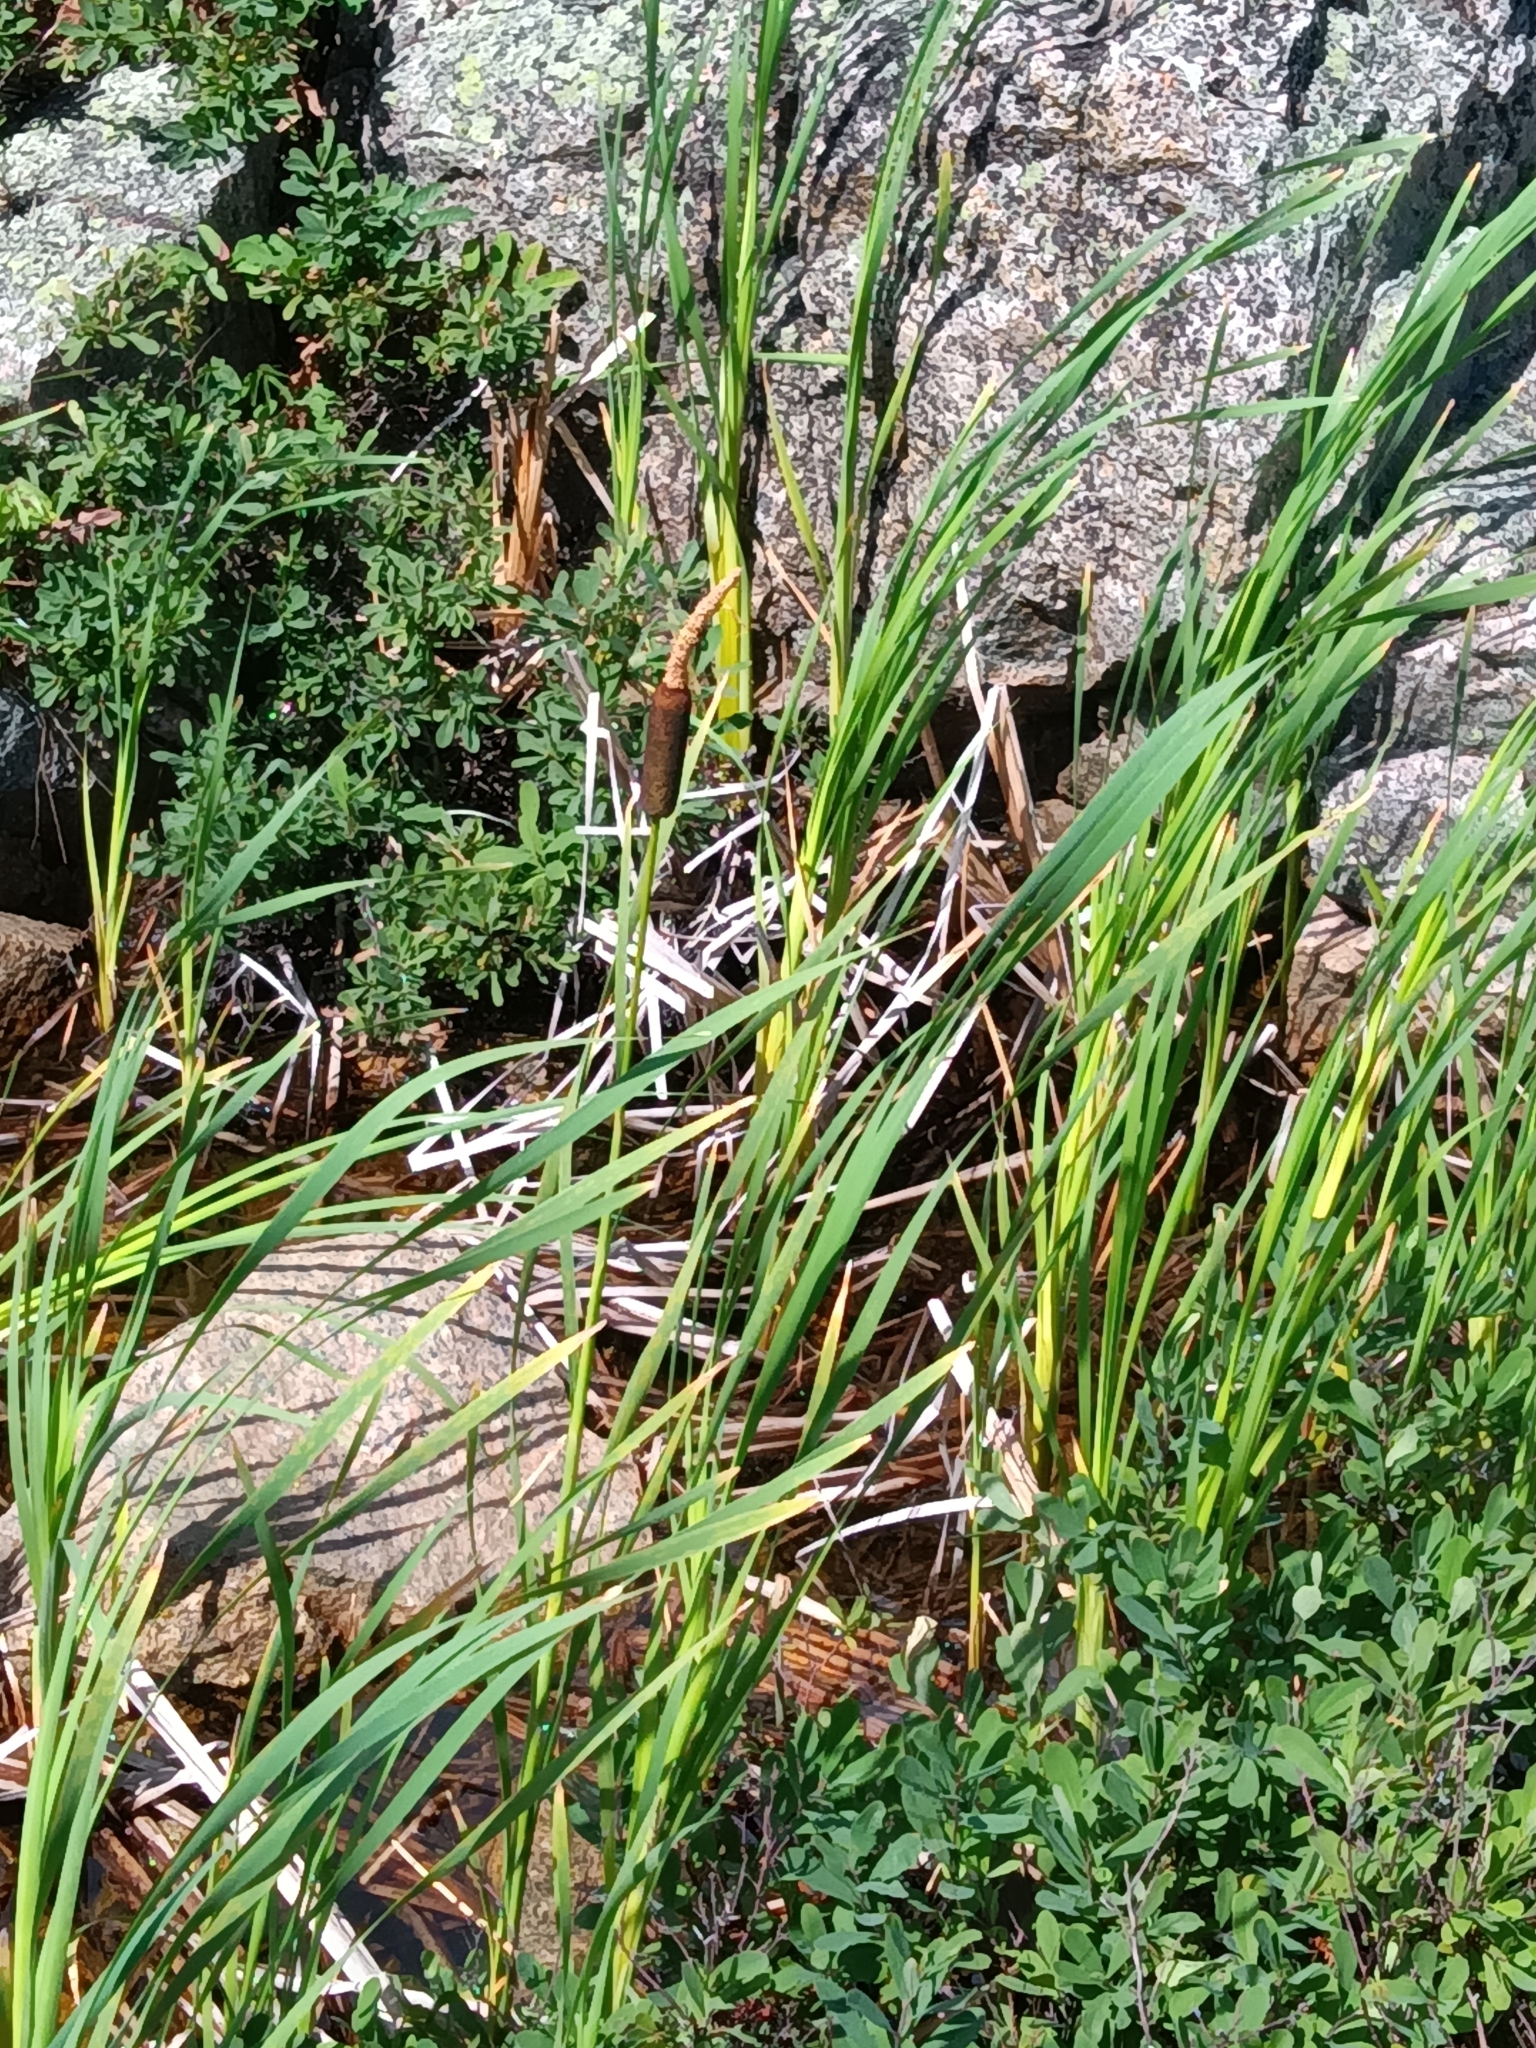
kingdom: Plantae
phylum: Tracheophyta
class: Liliopsida
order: Poales
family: Typhaceae
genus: Typha
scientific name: Typha latifolia
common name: Broadleaf cattail
